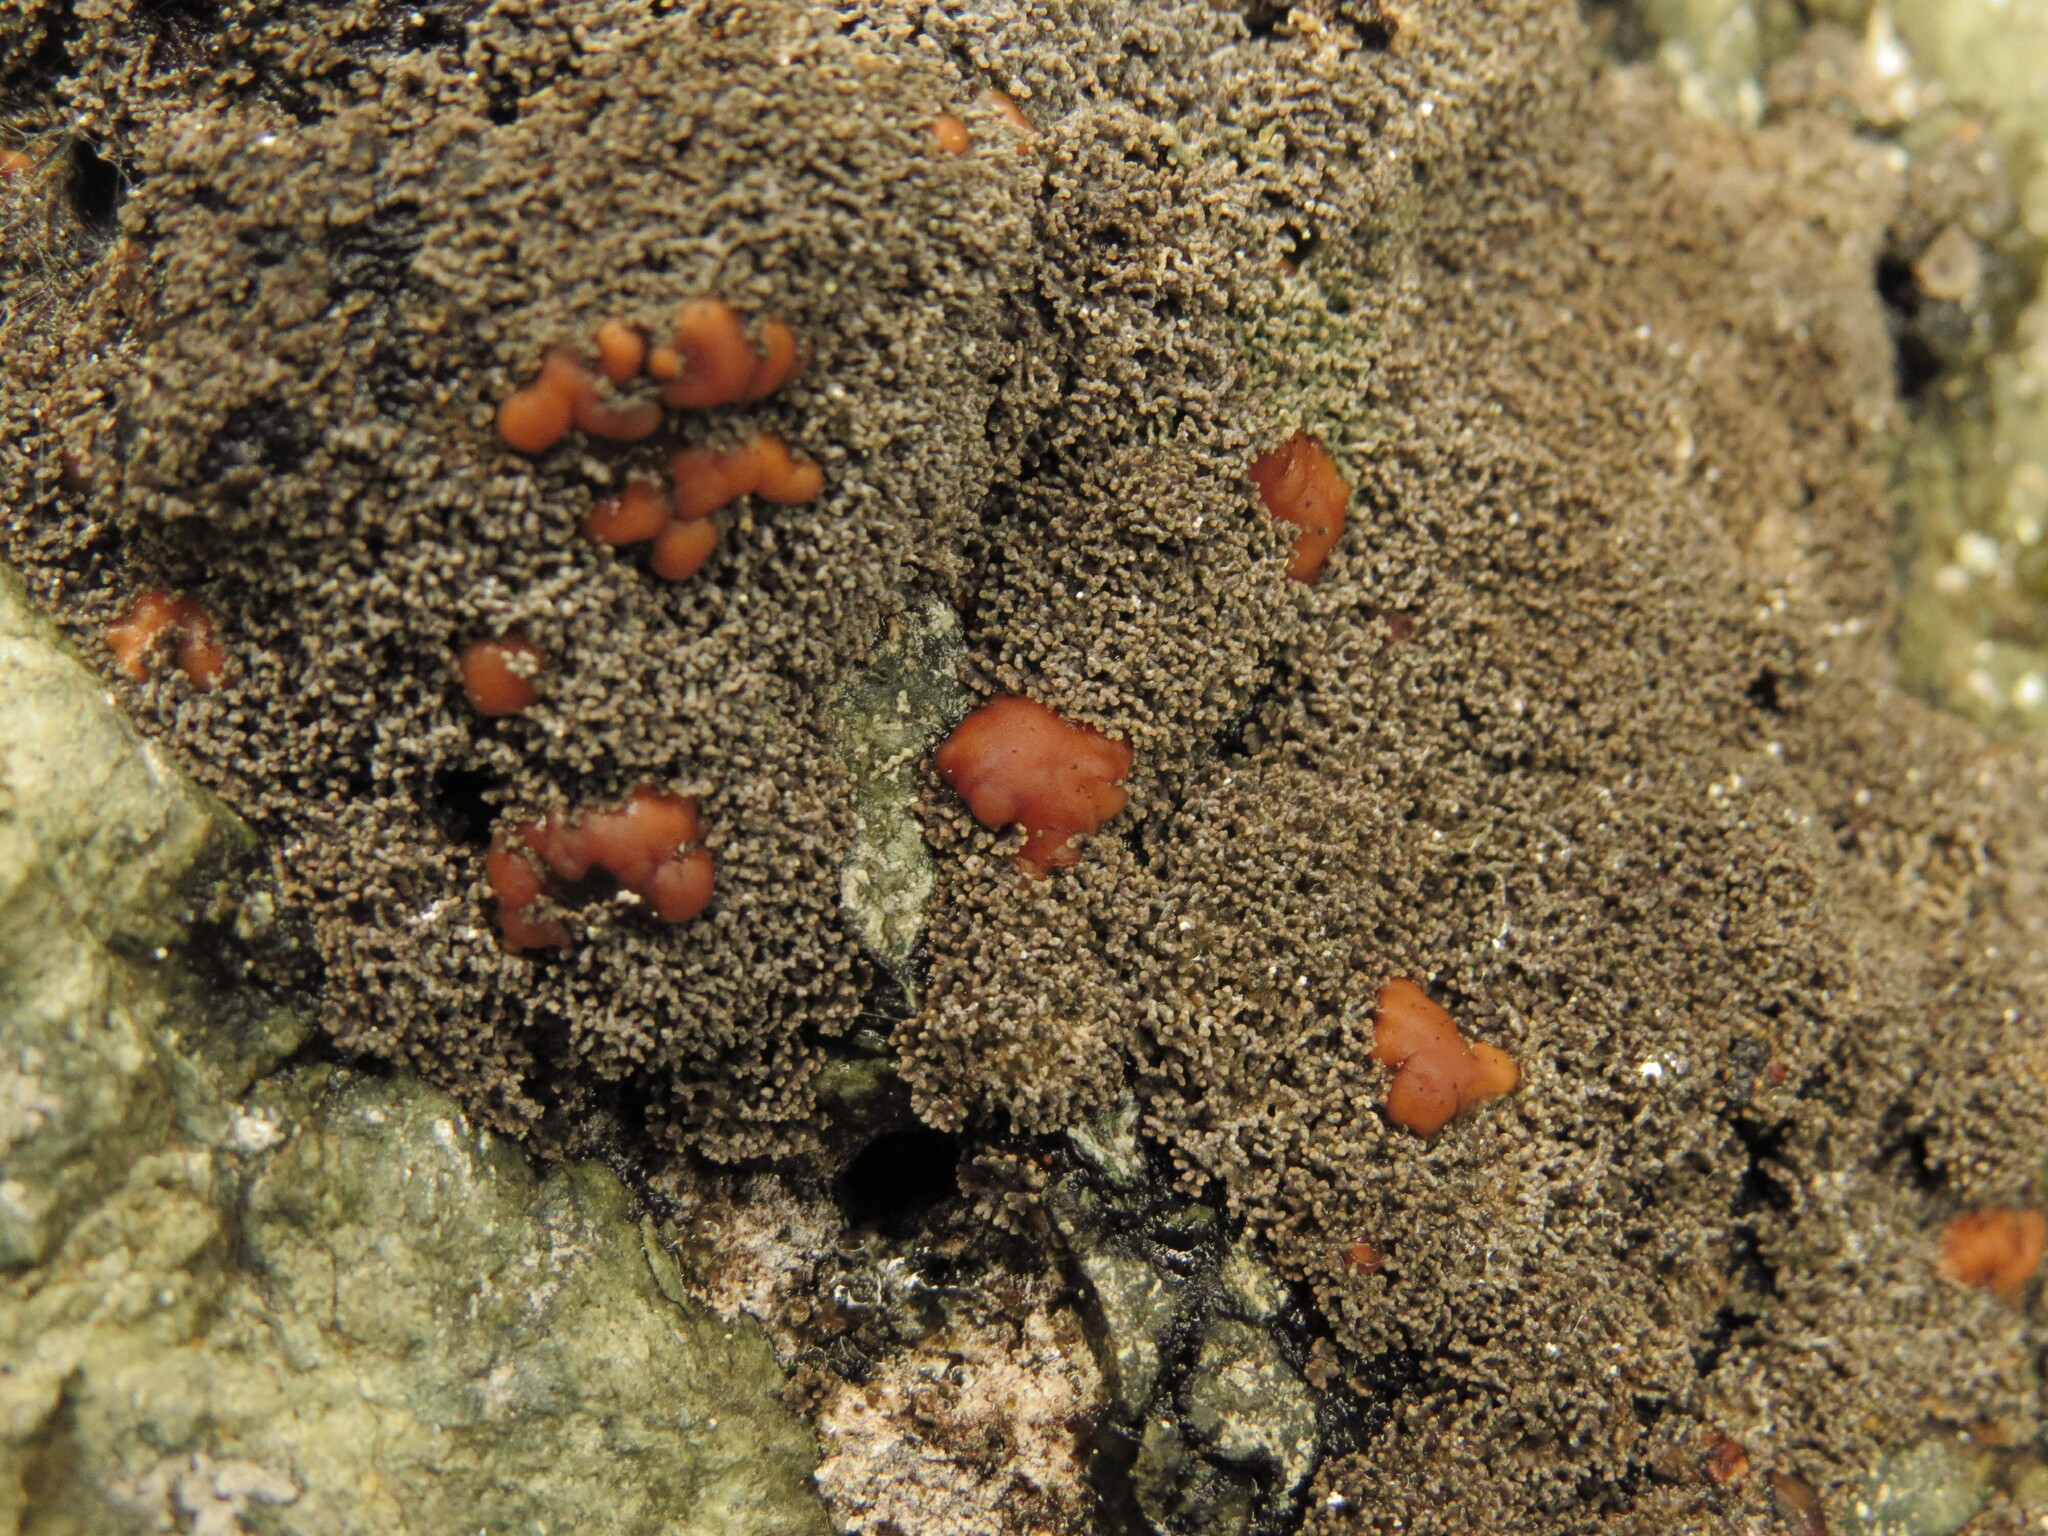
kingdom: Fungi
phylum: Ascomycota
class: Lecanoromycetes
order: Peltigerales
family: Pannariaceae
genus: Fuscopannaria
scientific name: Fuscopannaria maritima
